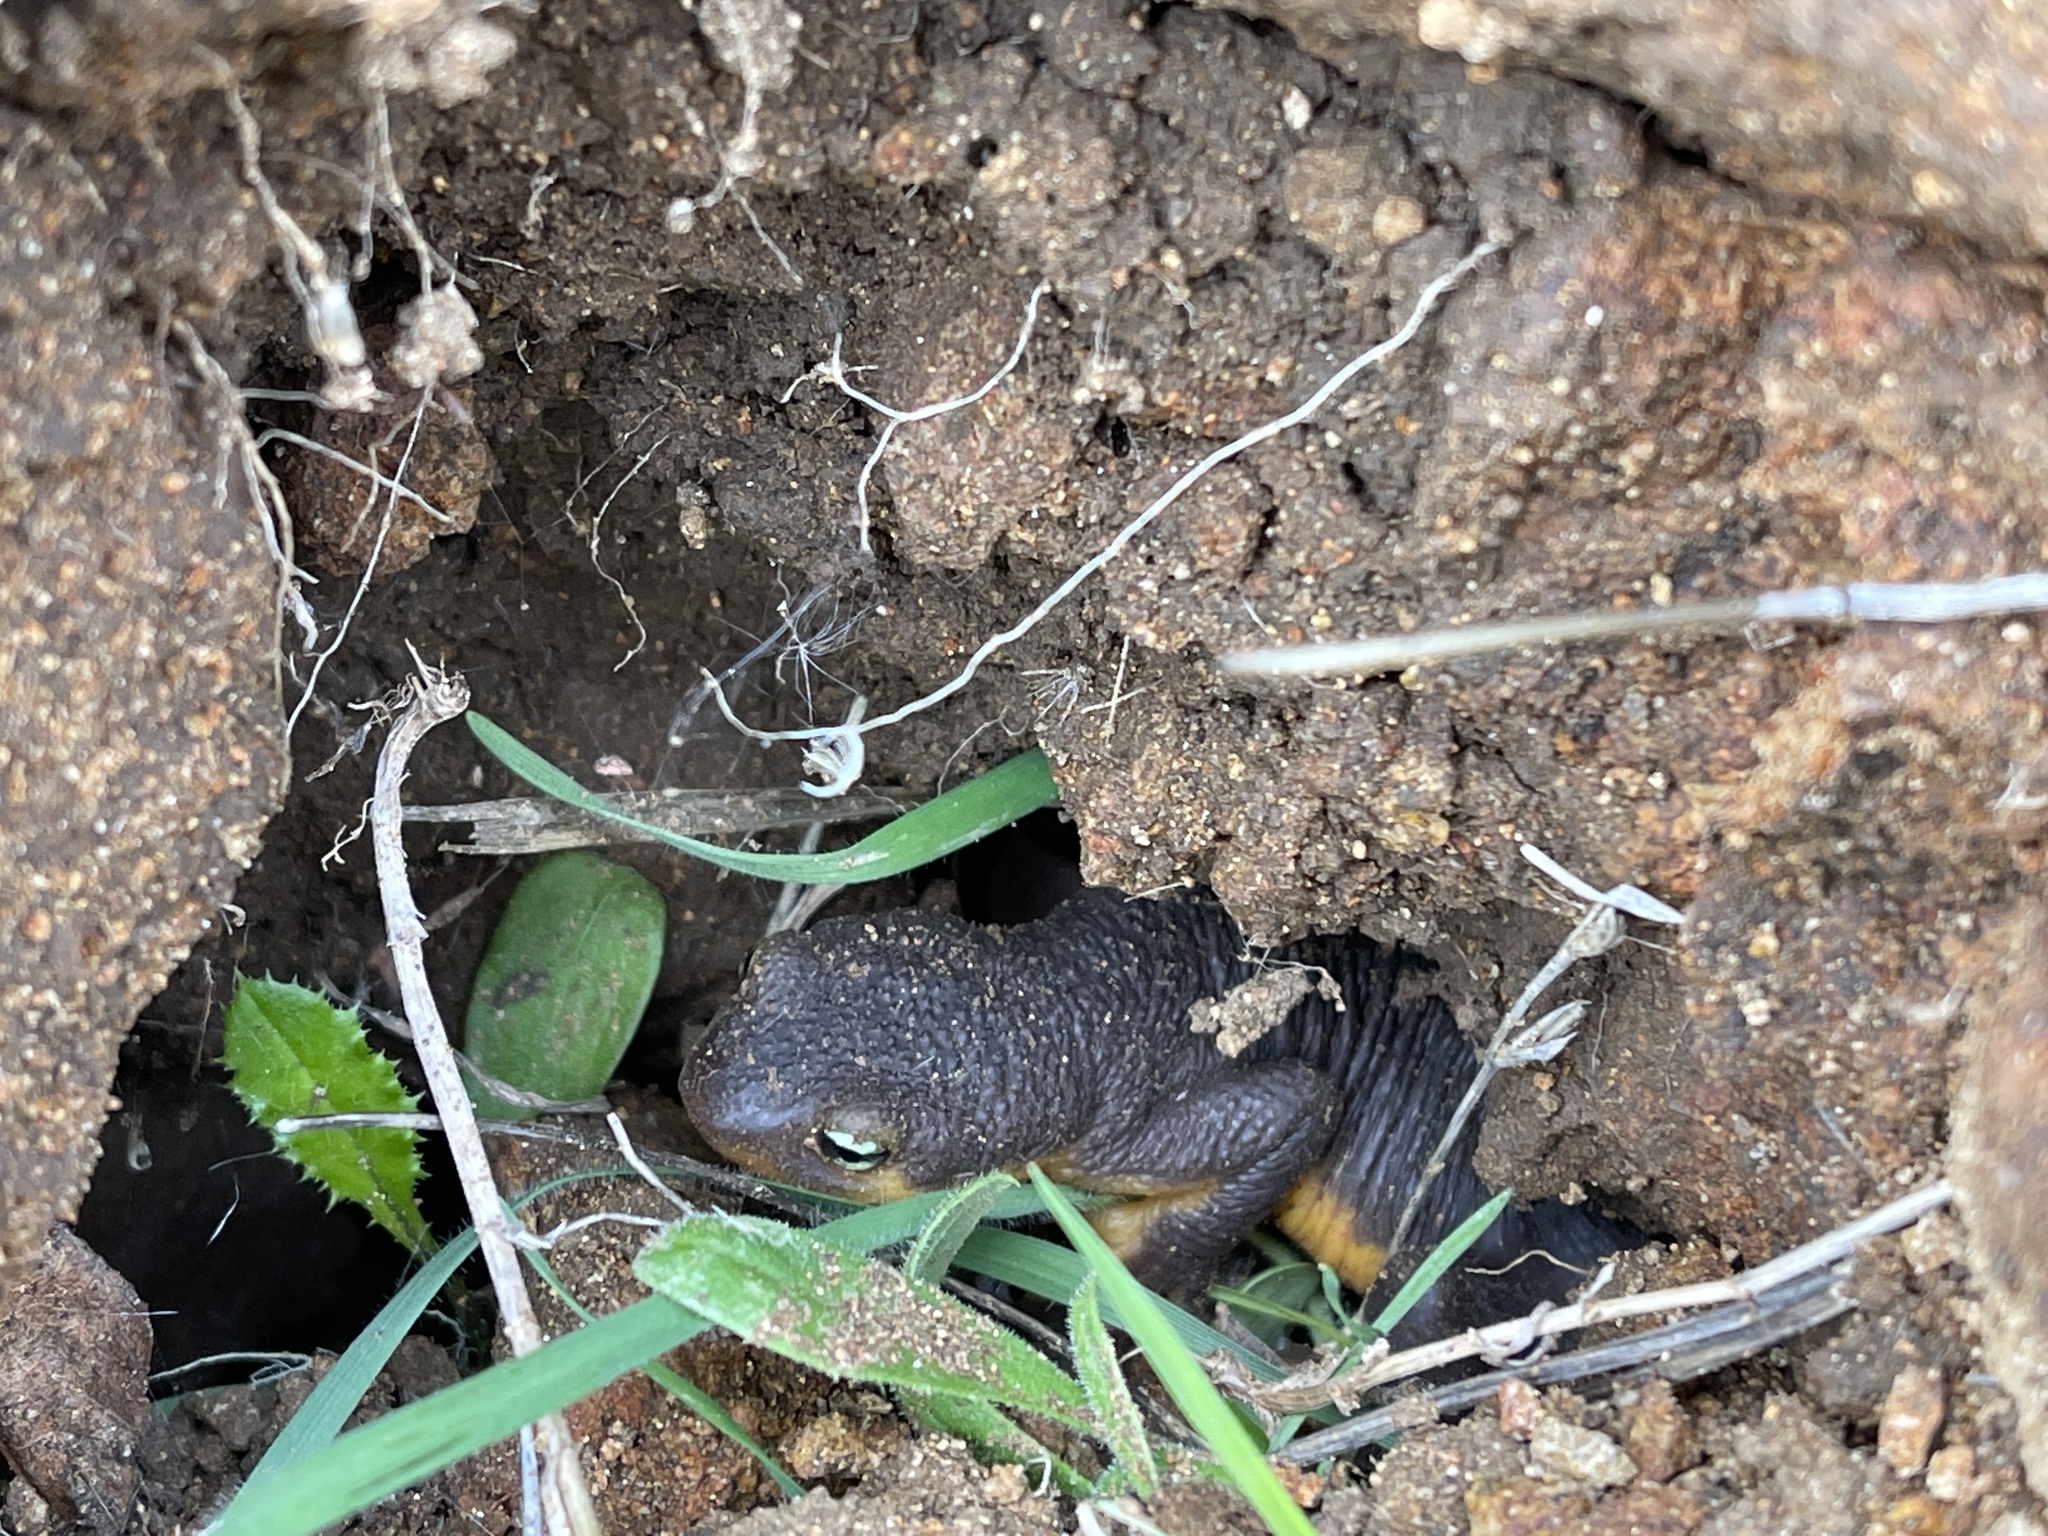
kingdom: Animalia
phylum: Chordata
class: Amphibia
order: Caudata
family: Salamandridae
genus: Taricha
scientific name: Taricha granulosa
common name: Roughskin newt
